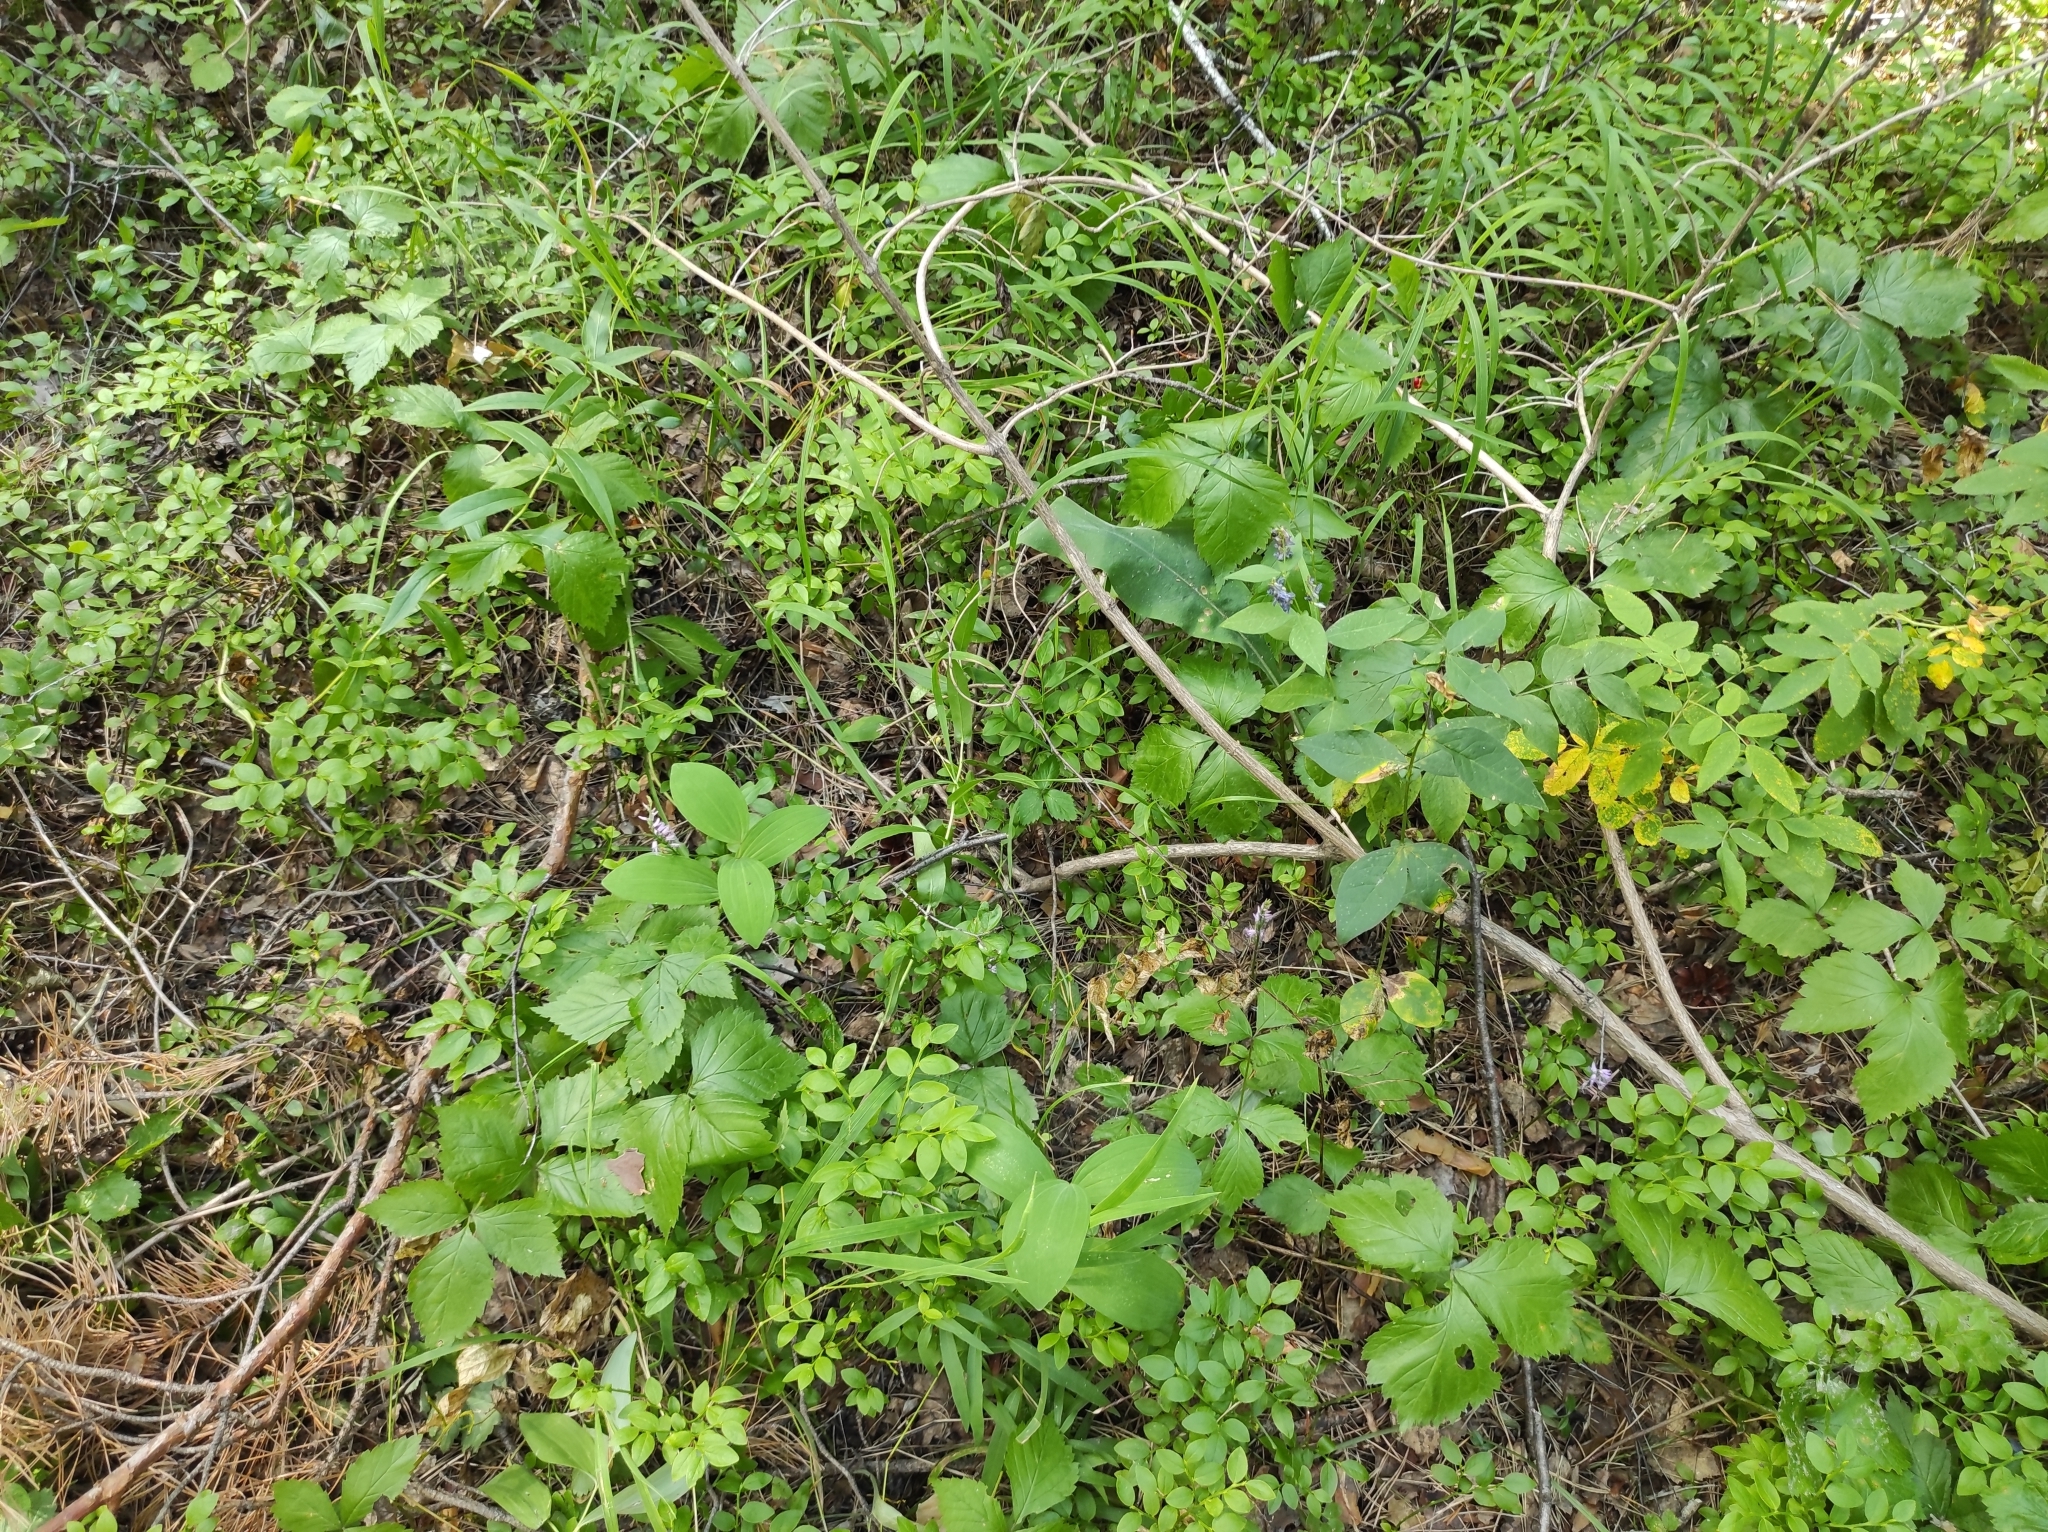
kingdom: Plantae
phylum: Tracheophyta
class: Liliopsida
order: Asparagales
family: Orchidaceae
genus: Hemipilia
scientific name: Hemipilia cucullata
